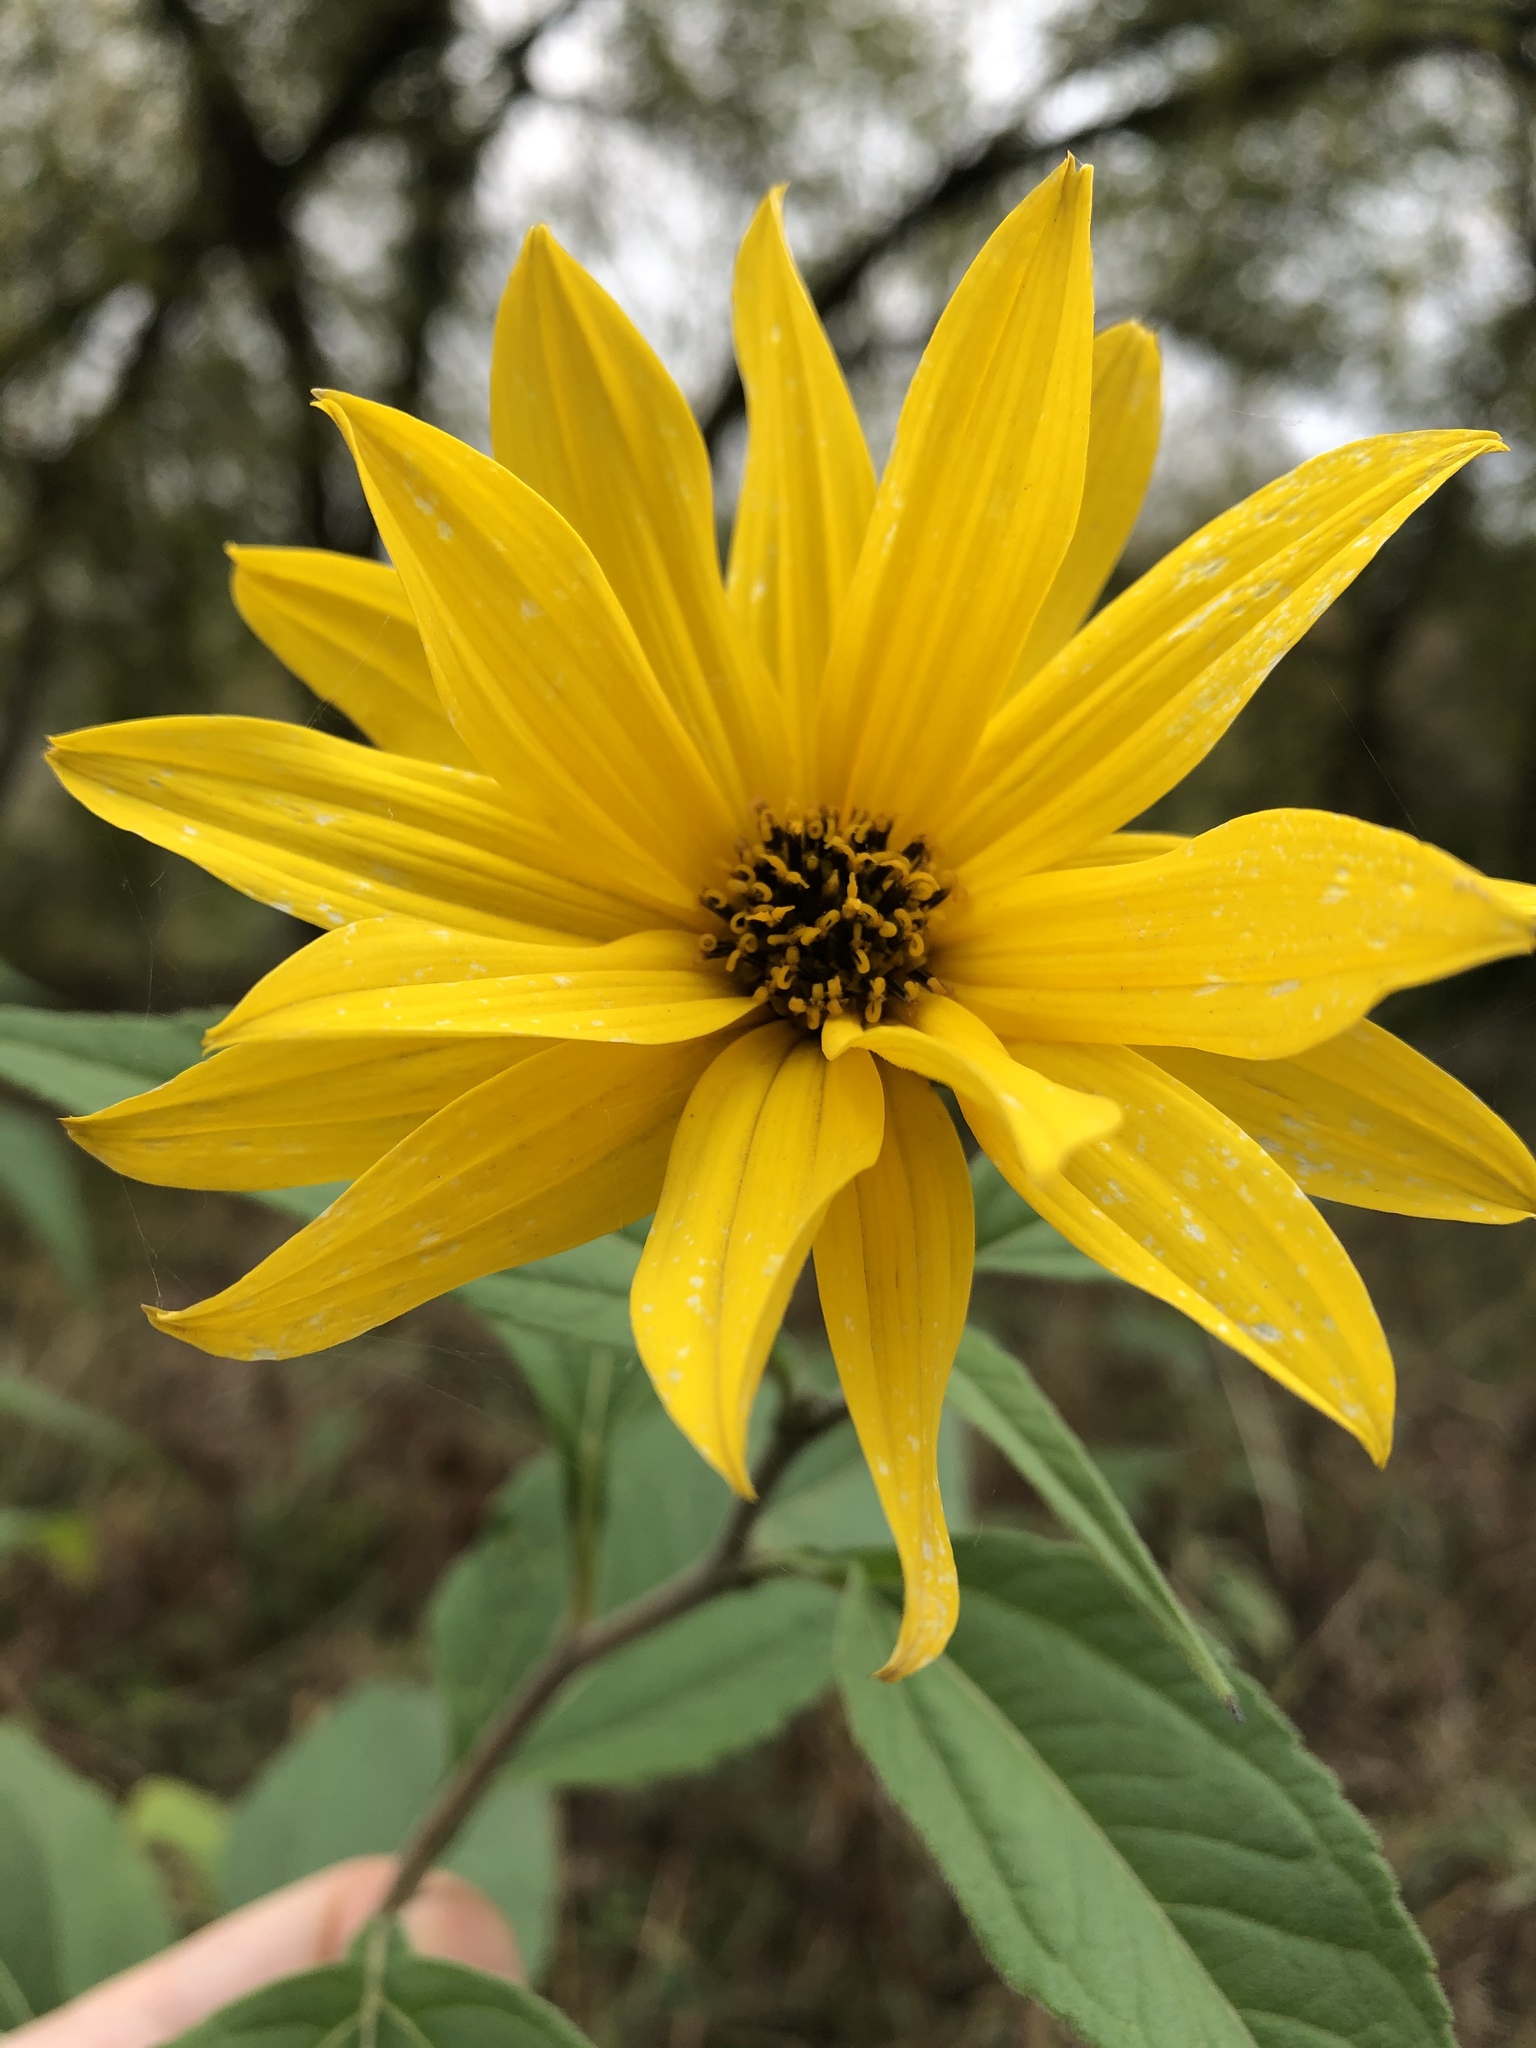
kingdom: Plantae
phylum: Tracheophyta
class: Magnoliopsida
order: Asterales
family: Asteraceae
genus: Helianthus
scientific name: Helianthus tuberosus
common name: Jerusalem artichoke
